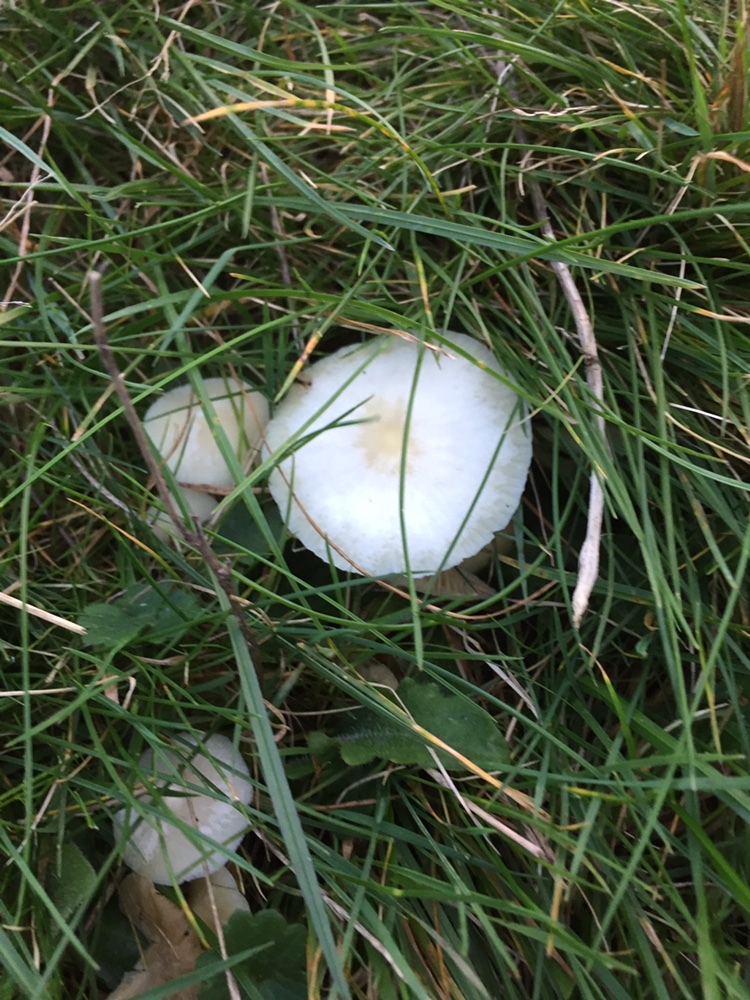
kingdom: Fungi
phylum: Basidiomycota
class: Agaricomycetes
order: Agaricales
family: Hygrophoraceae
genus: Cuphophyllus
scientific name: Cuphophyllus virgineus
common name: Snowy waxcap
